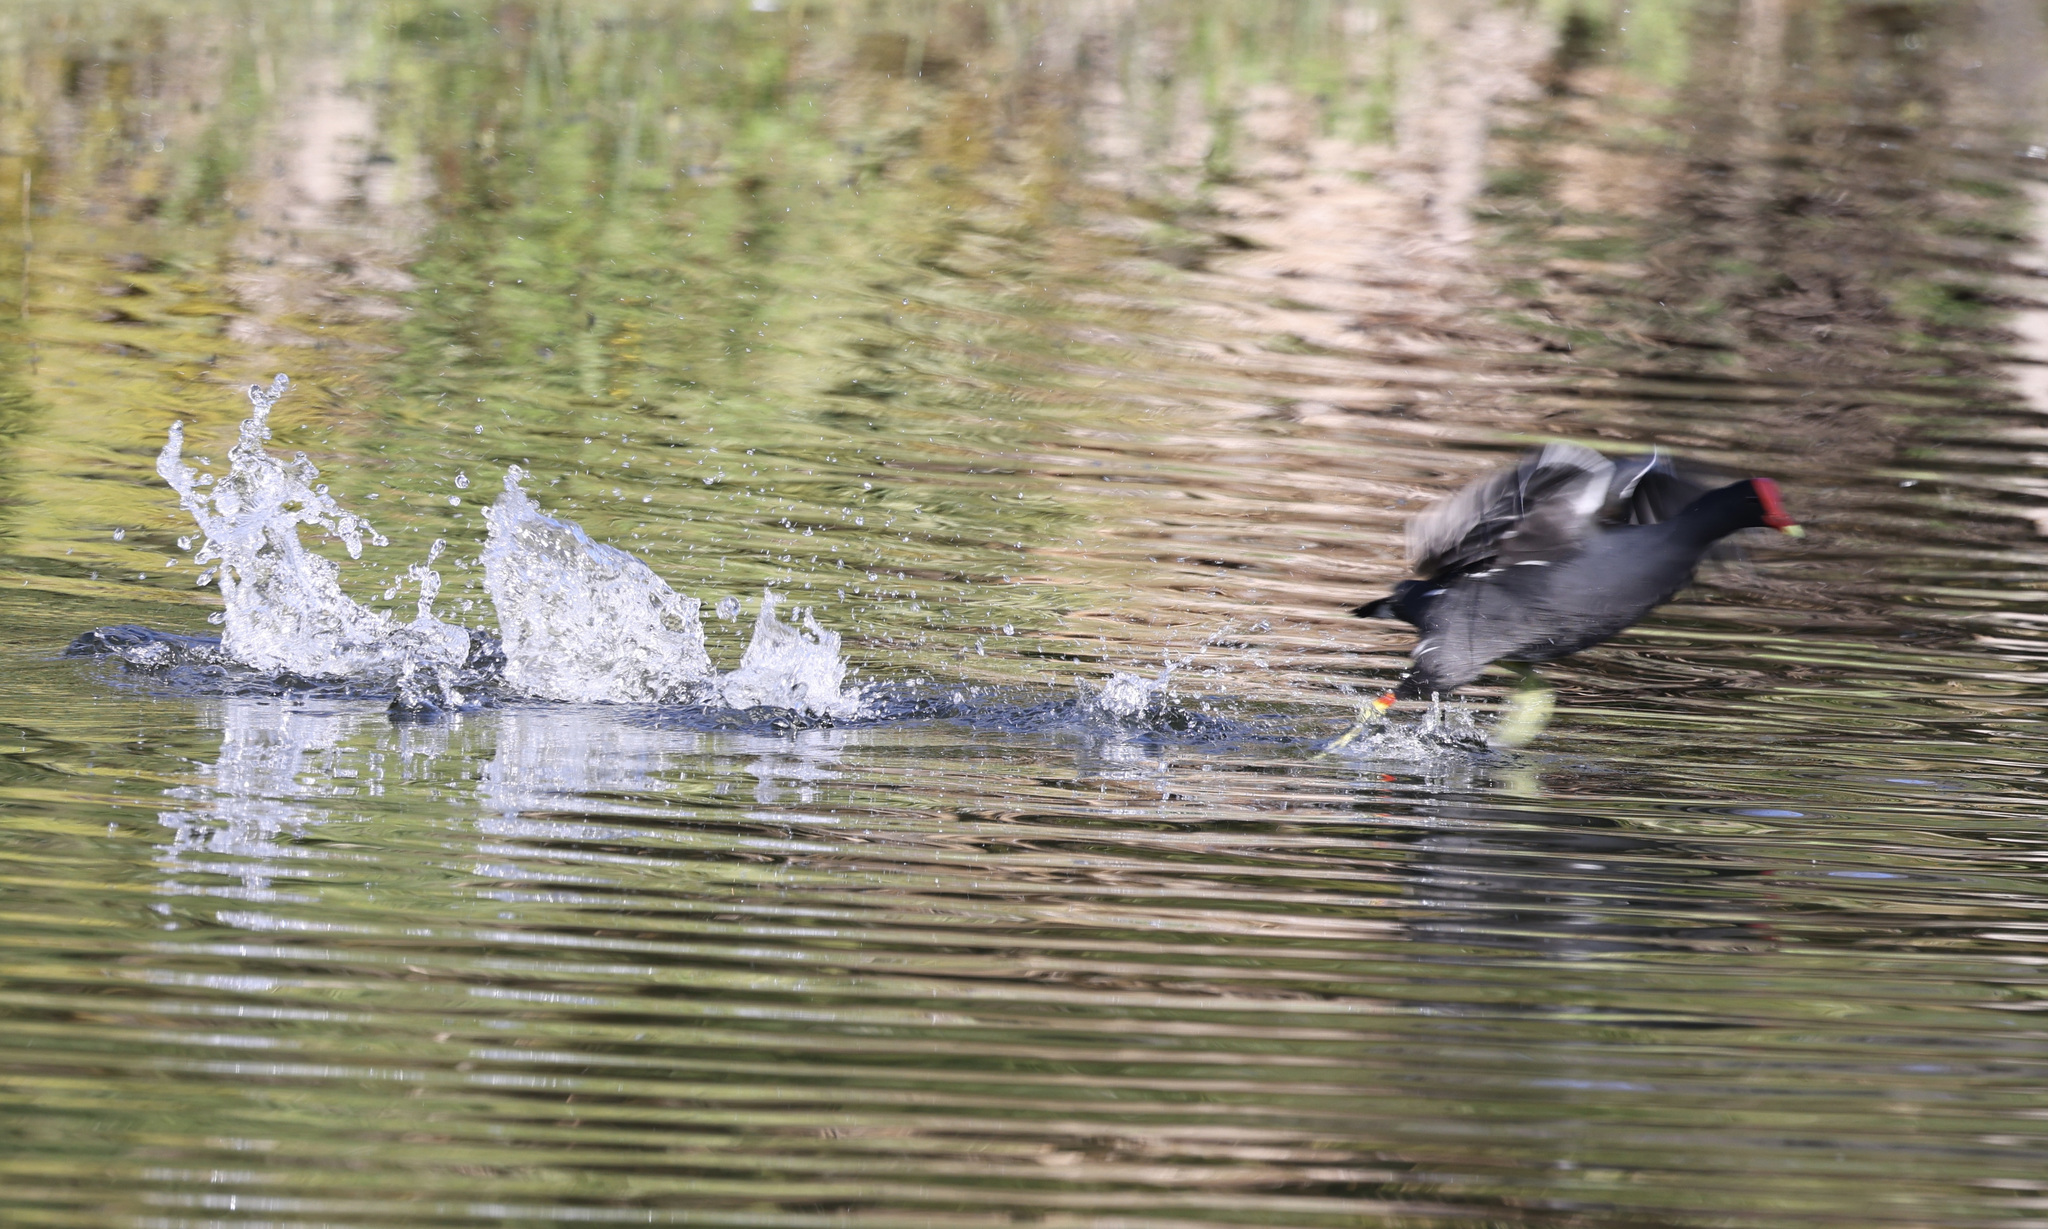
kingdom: Animalia
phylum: Chordata
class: Aves
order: Gruiformes
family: Rallidae
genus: Gallinula
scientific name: Gallinula chloropus
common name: Common moorhen
